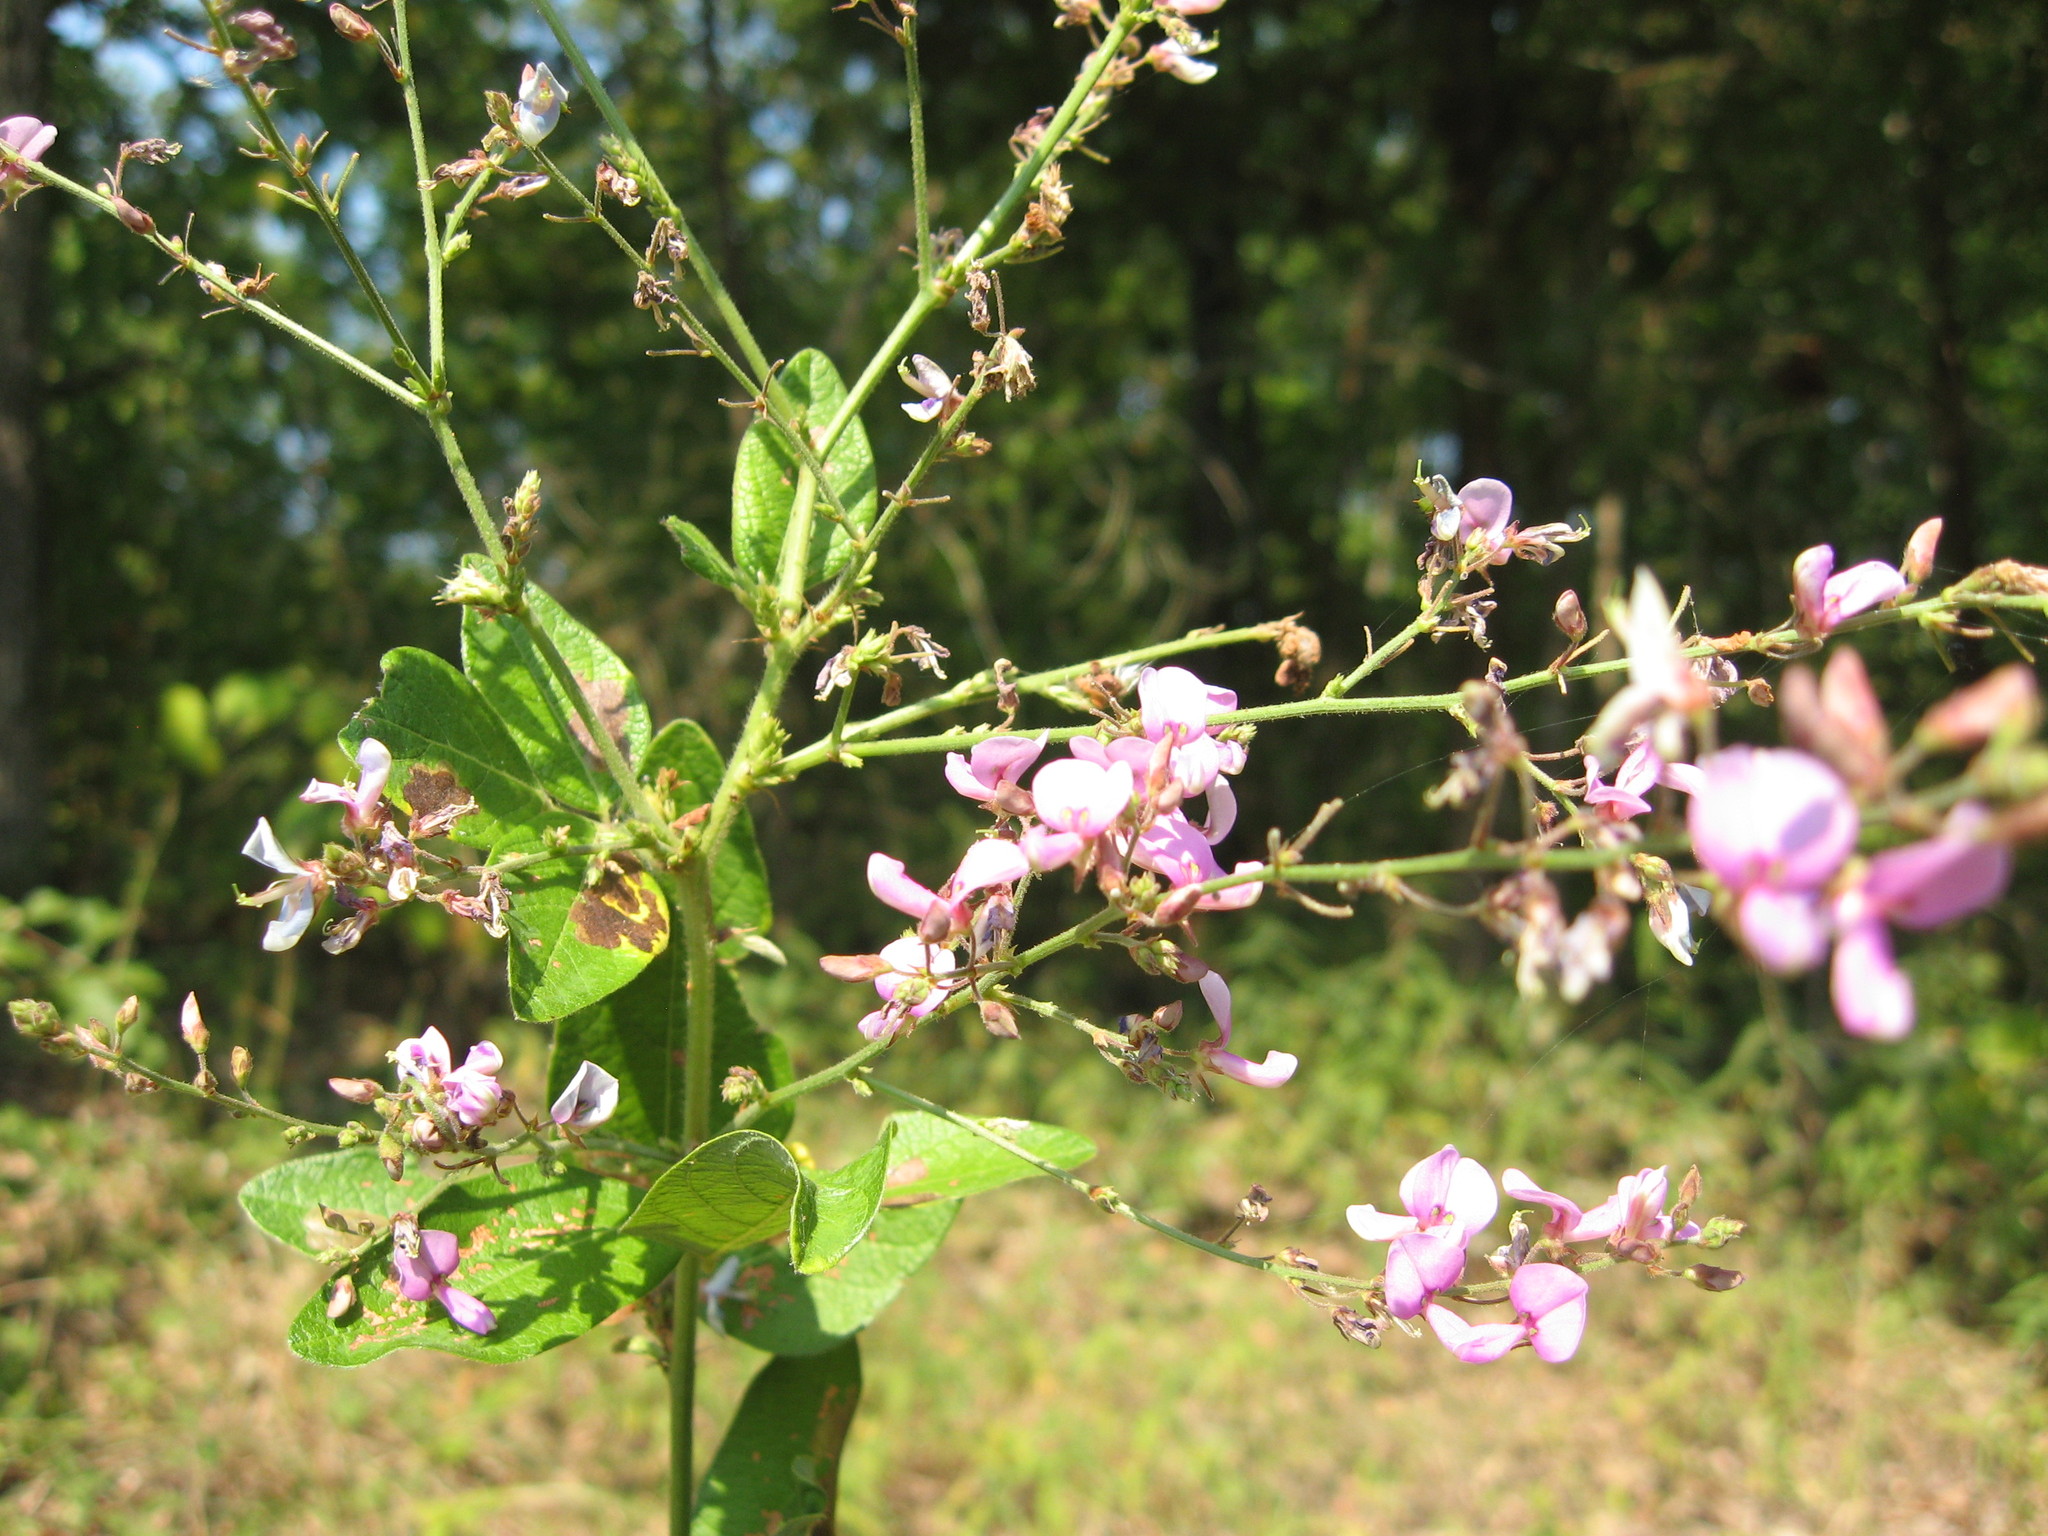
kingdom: Plantae
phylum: Tracheophyta
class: Magnoliopsida
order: Fabales
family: Fabaceae
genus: Desmodium
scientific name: Desmodium nuttallii
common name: Nuttall's tick trefoil
